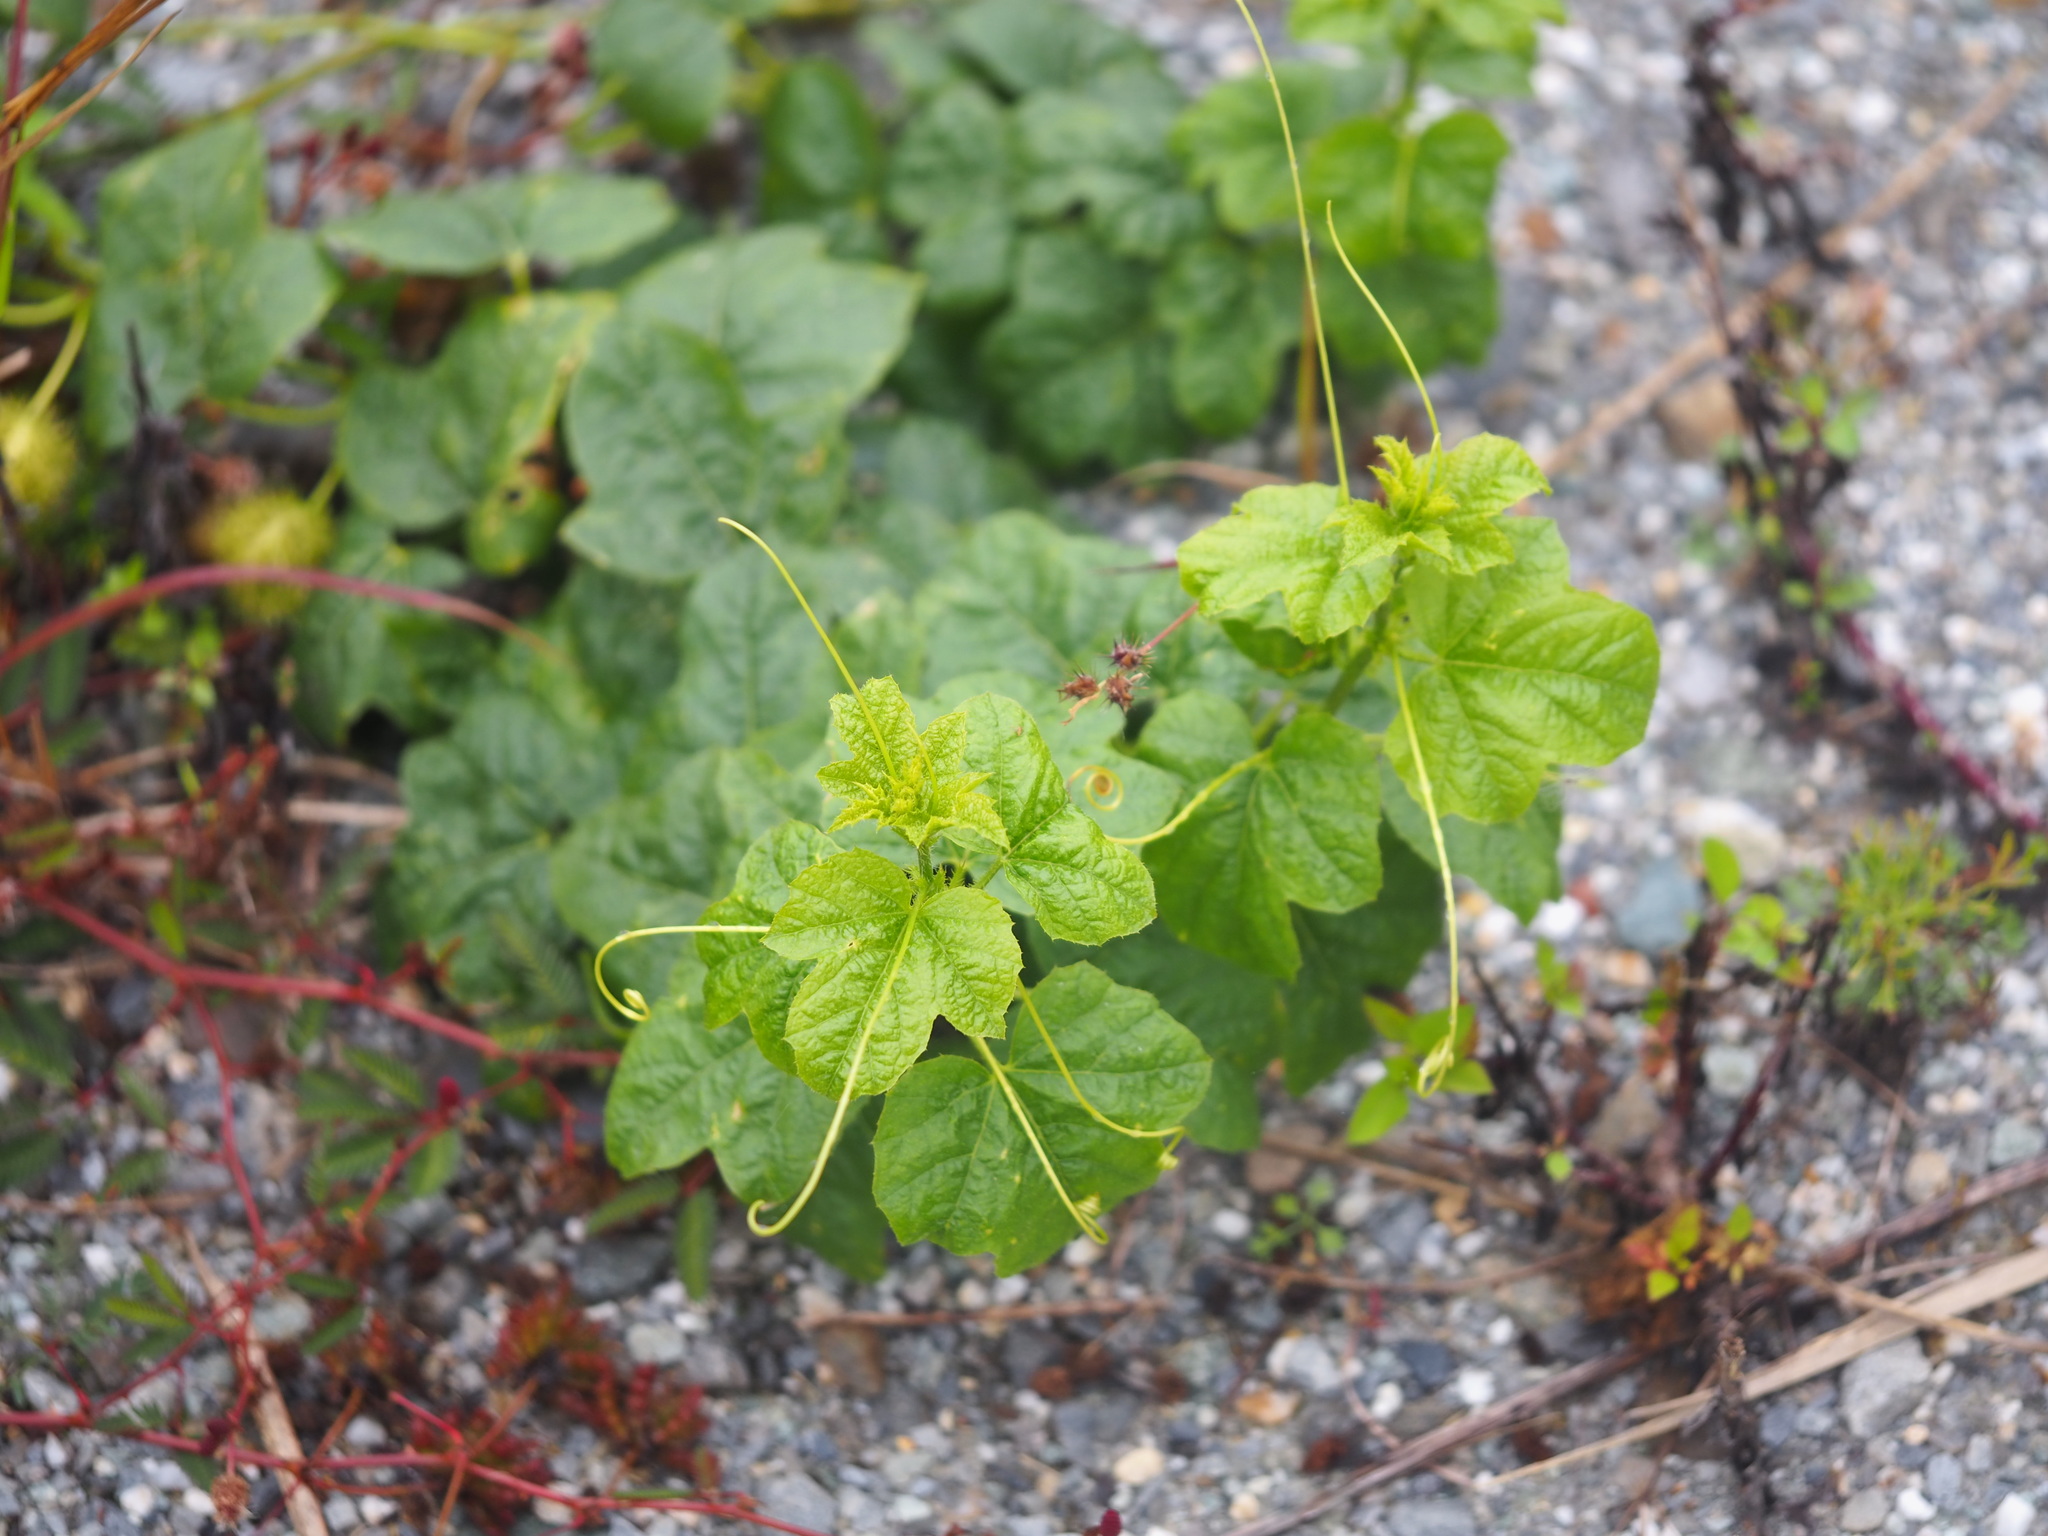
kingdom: Plantae
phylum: Tracheophyta
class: Magnoliopsida
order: Malpighiales
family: Passifloraceae
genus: Passiflora
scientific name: Passiflora vesicaria
